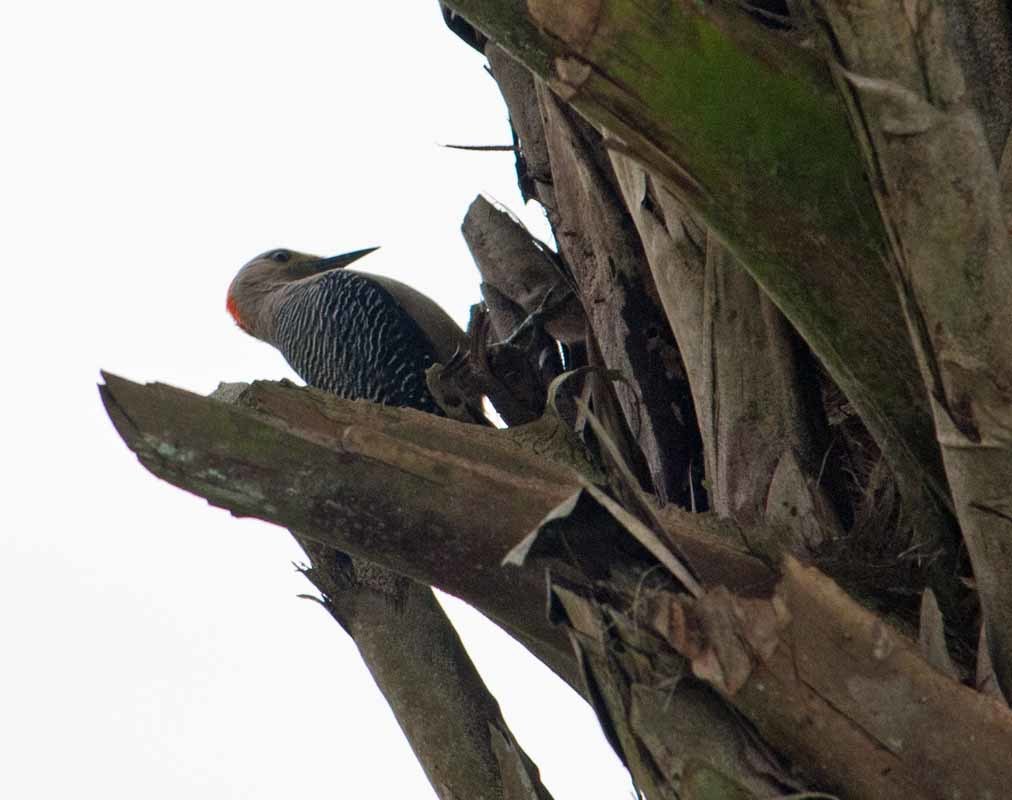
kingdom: Animalia
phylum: Chordata
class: Aves
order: Piciformes
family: Picidae
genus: Melanerpes
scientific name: Melanerpes aurifrons
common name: Golden-fronted woodpecker
